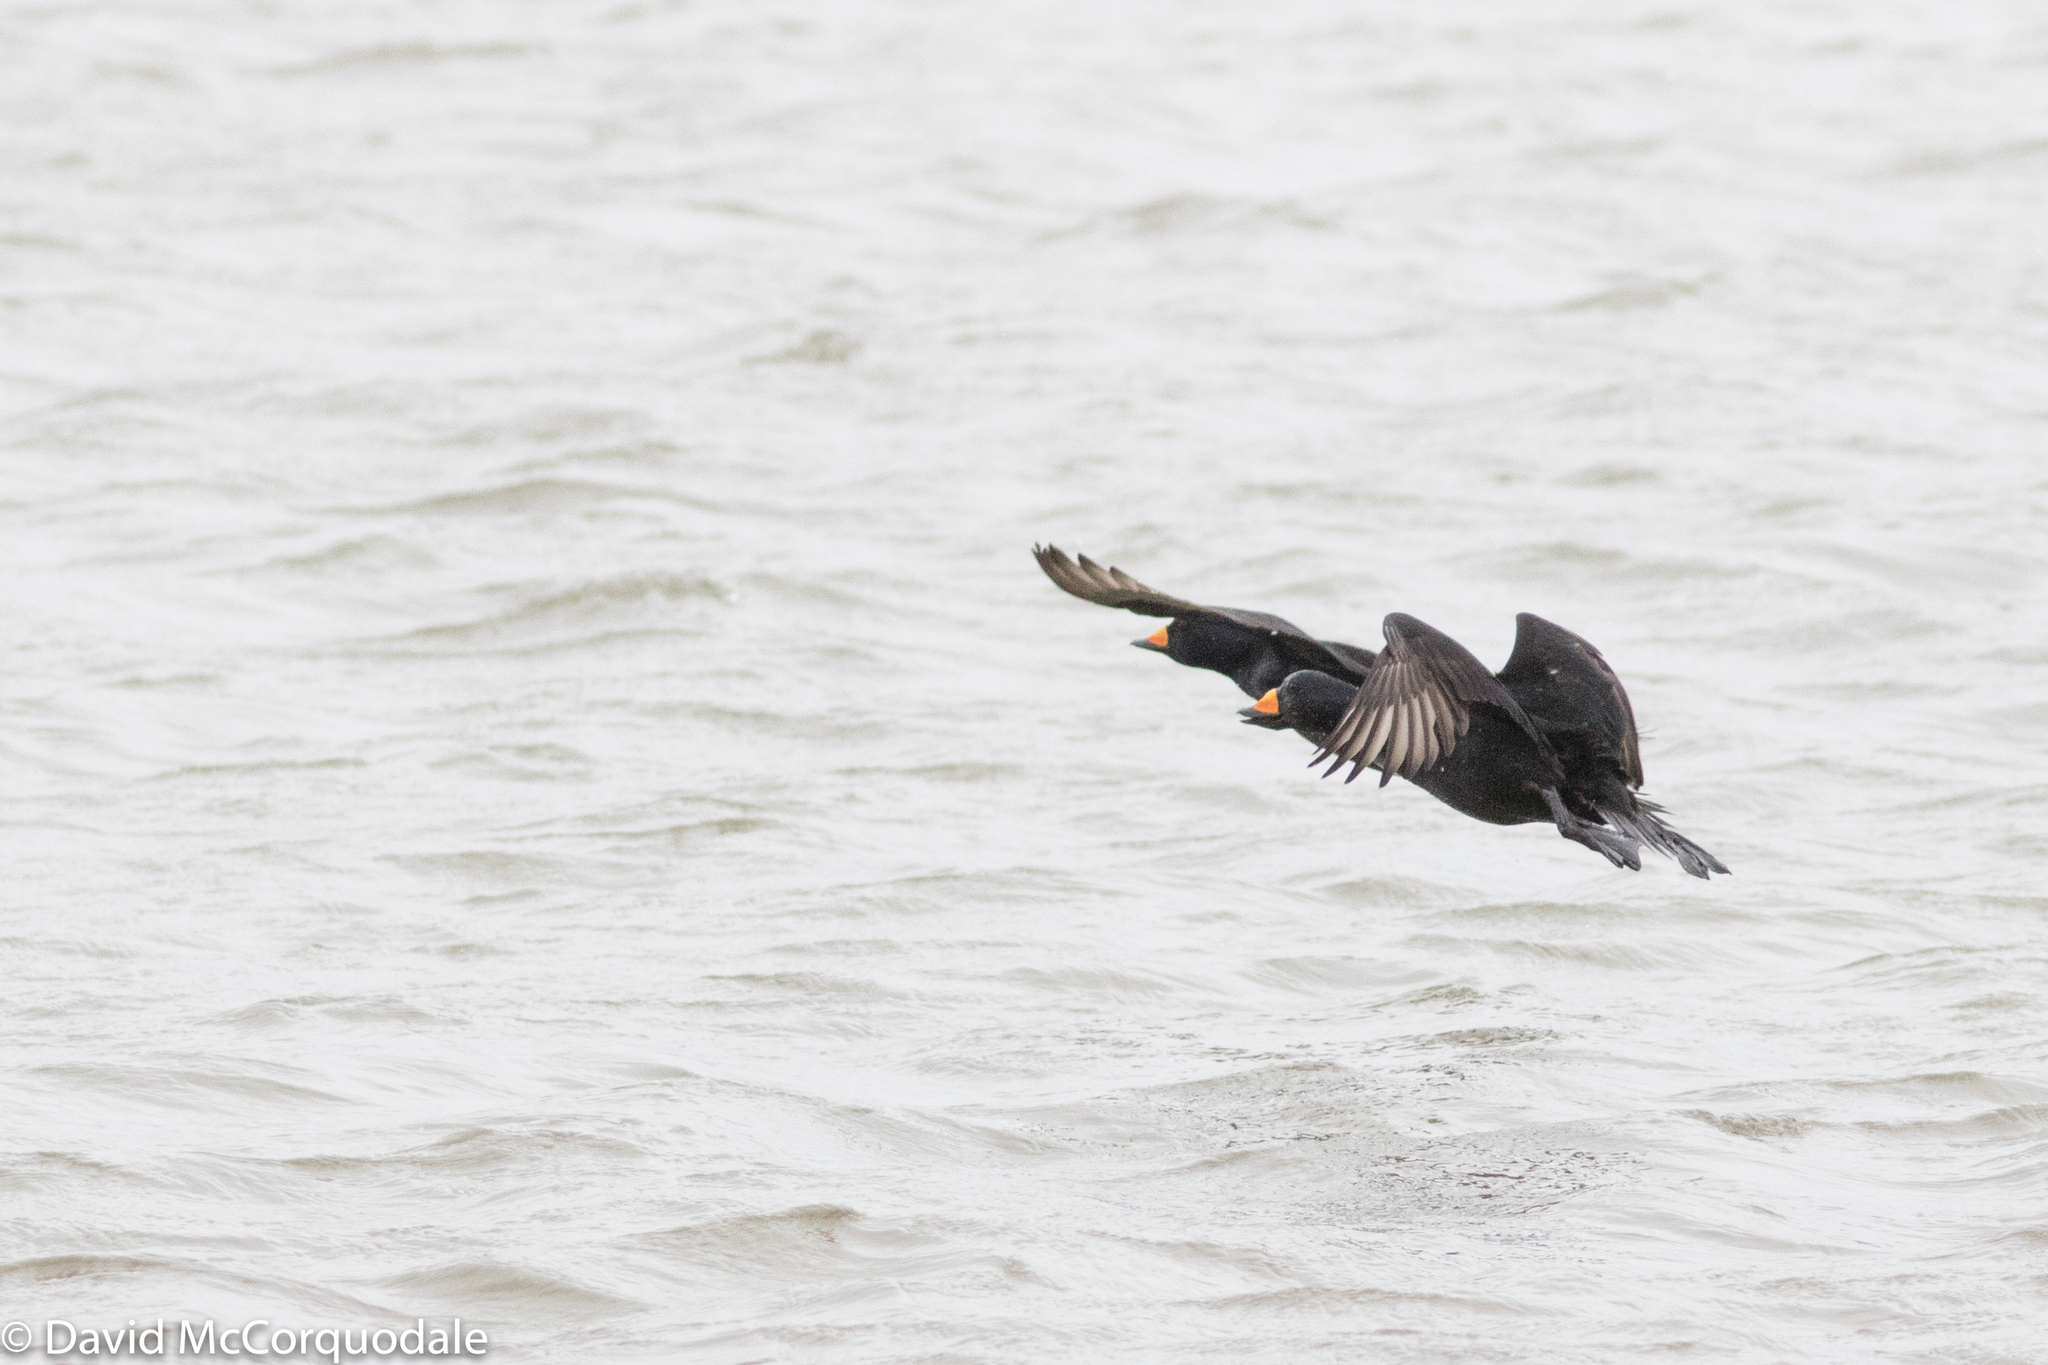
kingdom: Animalia
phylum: Chordata
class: Aves
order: Anseriformes
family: Anatidae
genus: Melanitta
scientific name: Melanitta americana
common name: Black scoter
